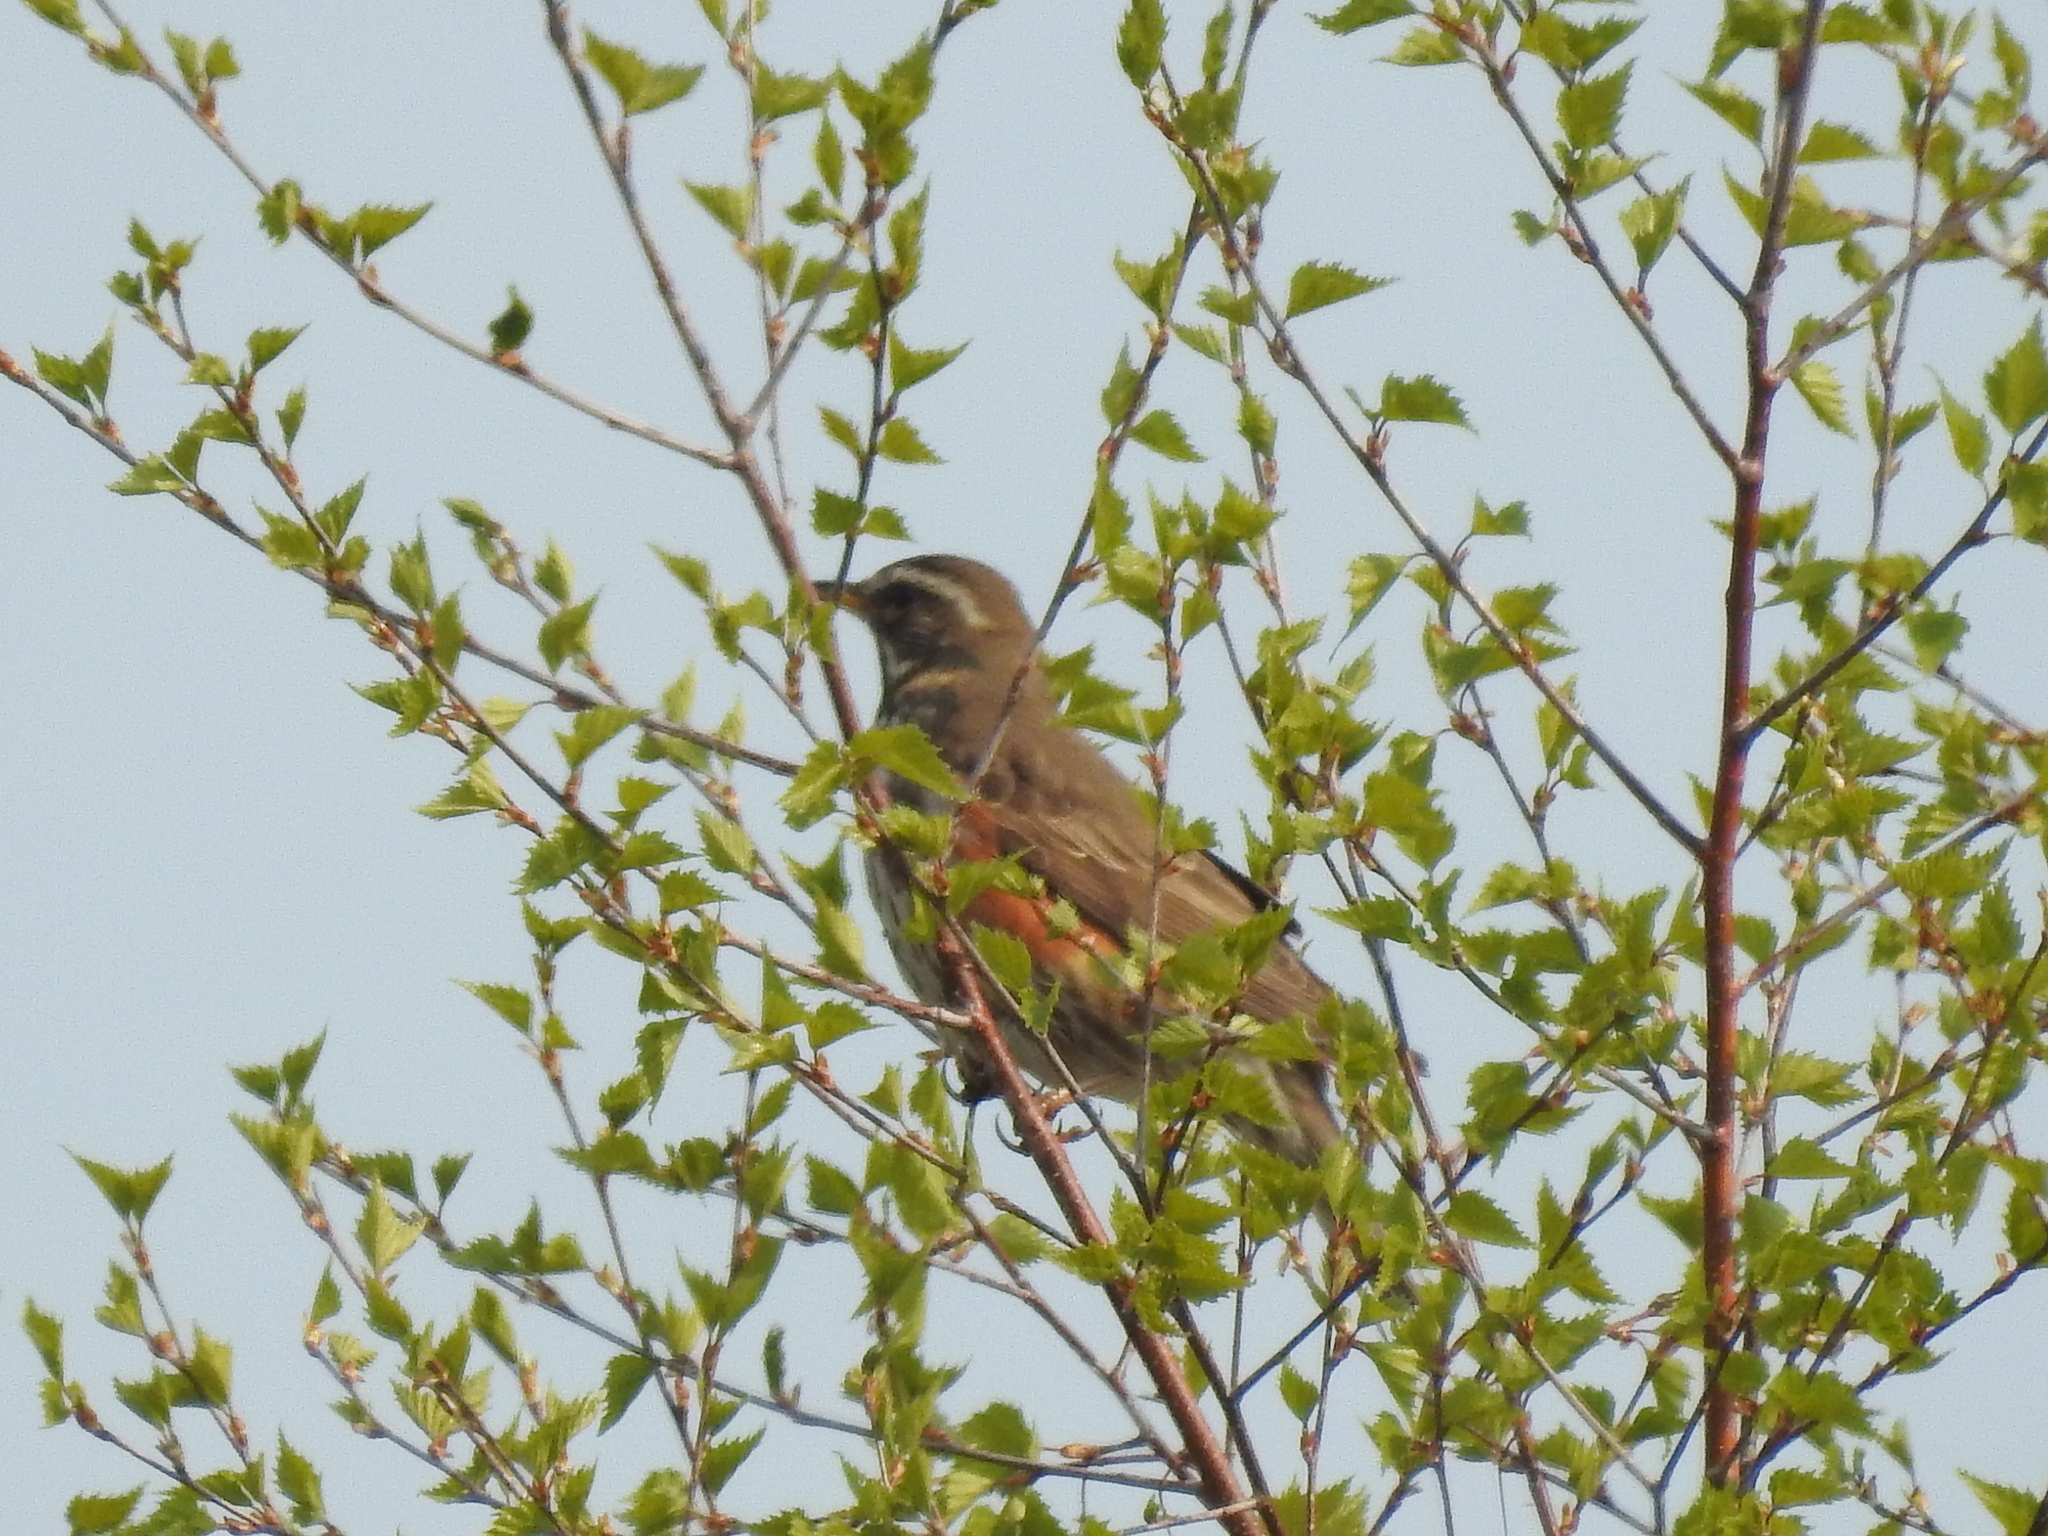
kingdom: Animalia
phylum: Chordata
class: Aves
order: Passeriformes
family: Turdidae
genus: Turdus
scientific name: Turdus iliacus
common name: Redwing
